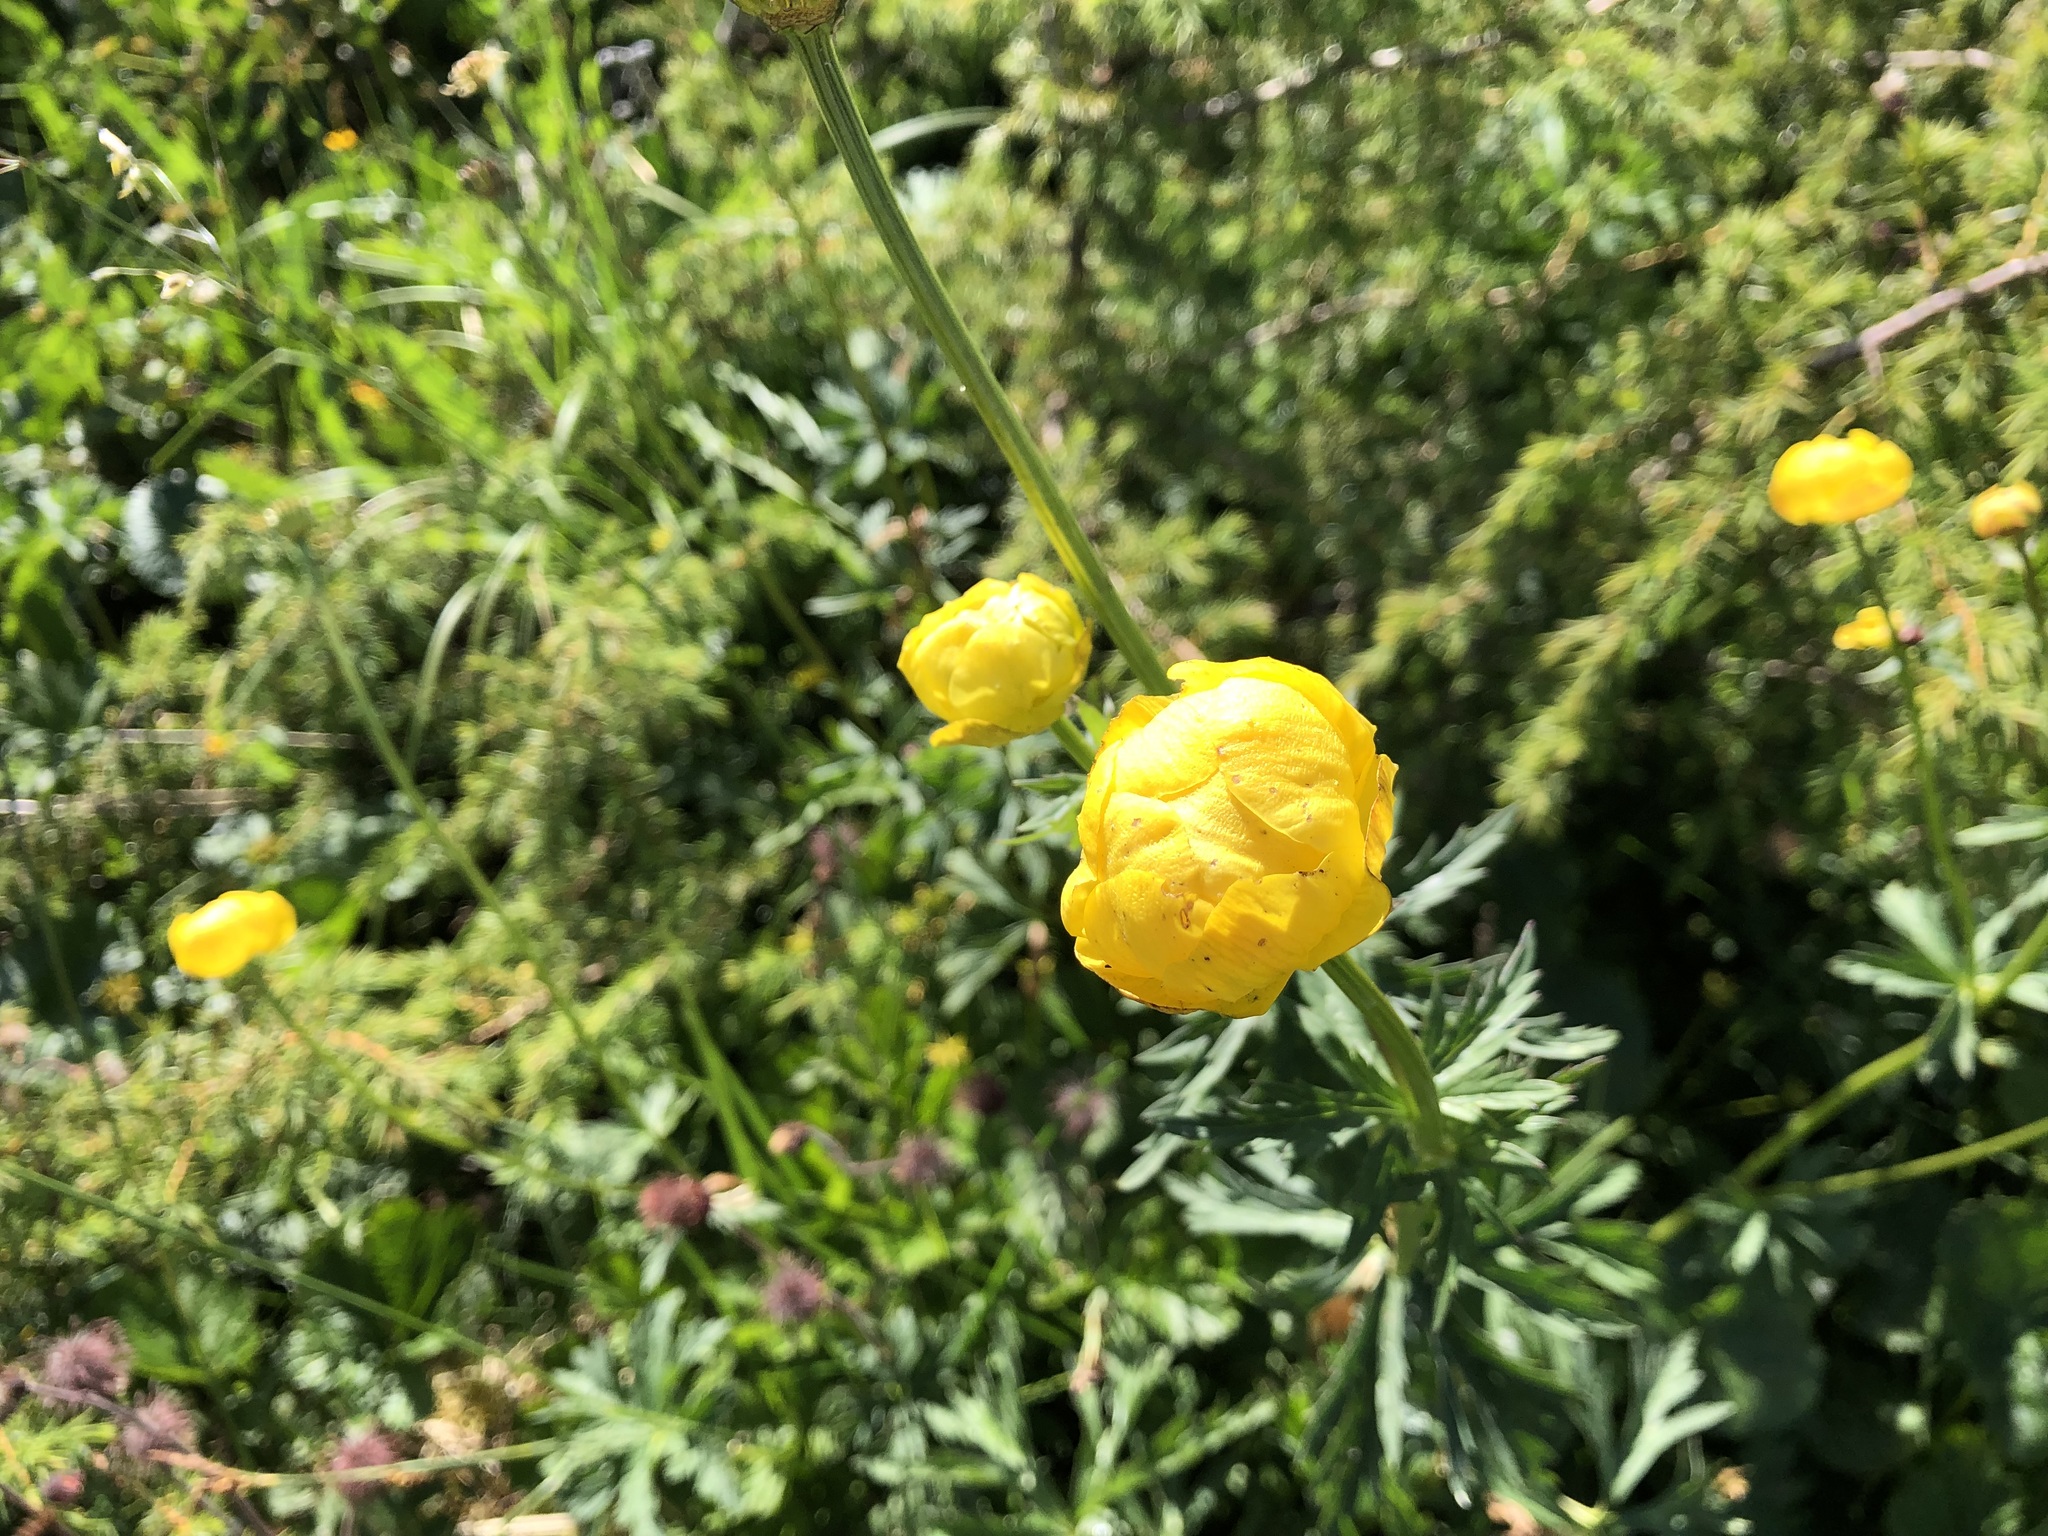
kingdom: Plantae
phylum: Tracheophyta
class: Magnoliopsida
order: Ranunculales
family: Ranunculaceae
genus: Trollius
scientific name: Trollius europaeus
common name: European globeflower
